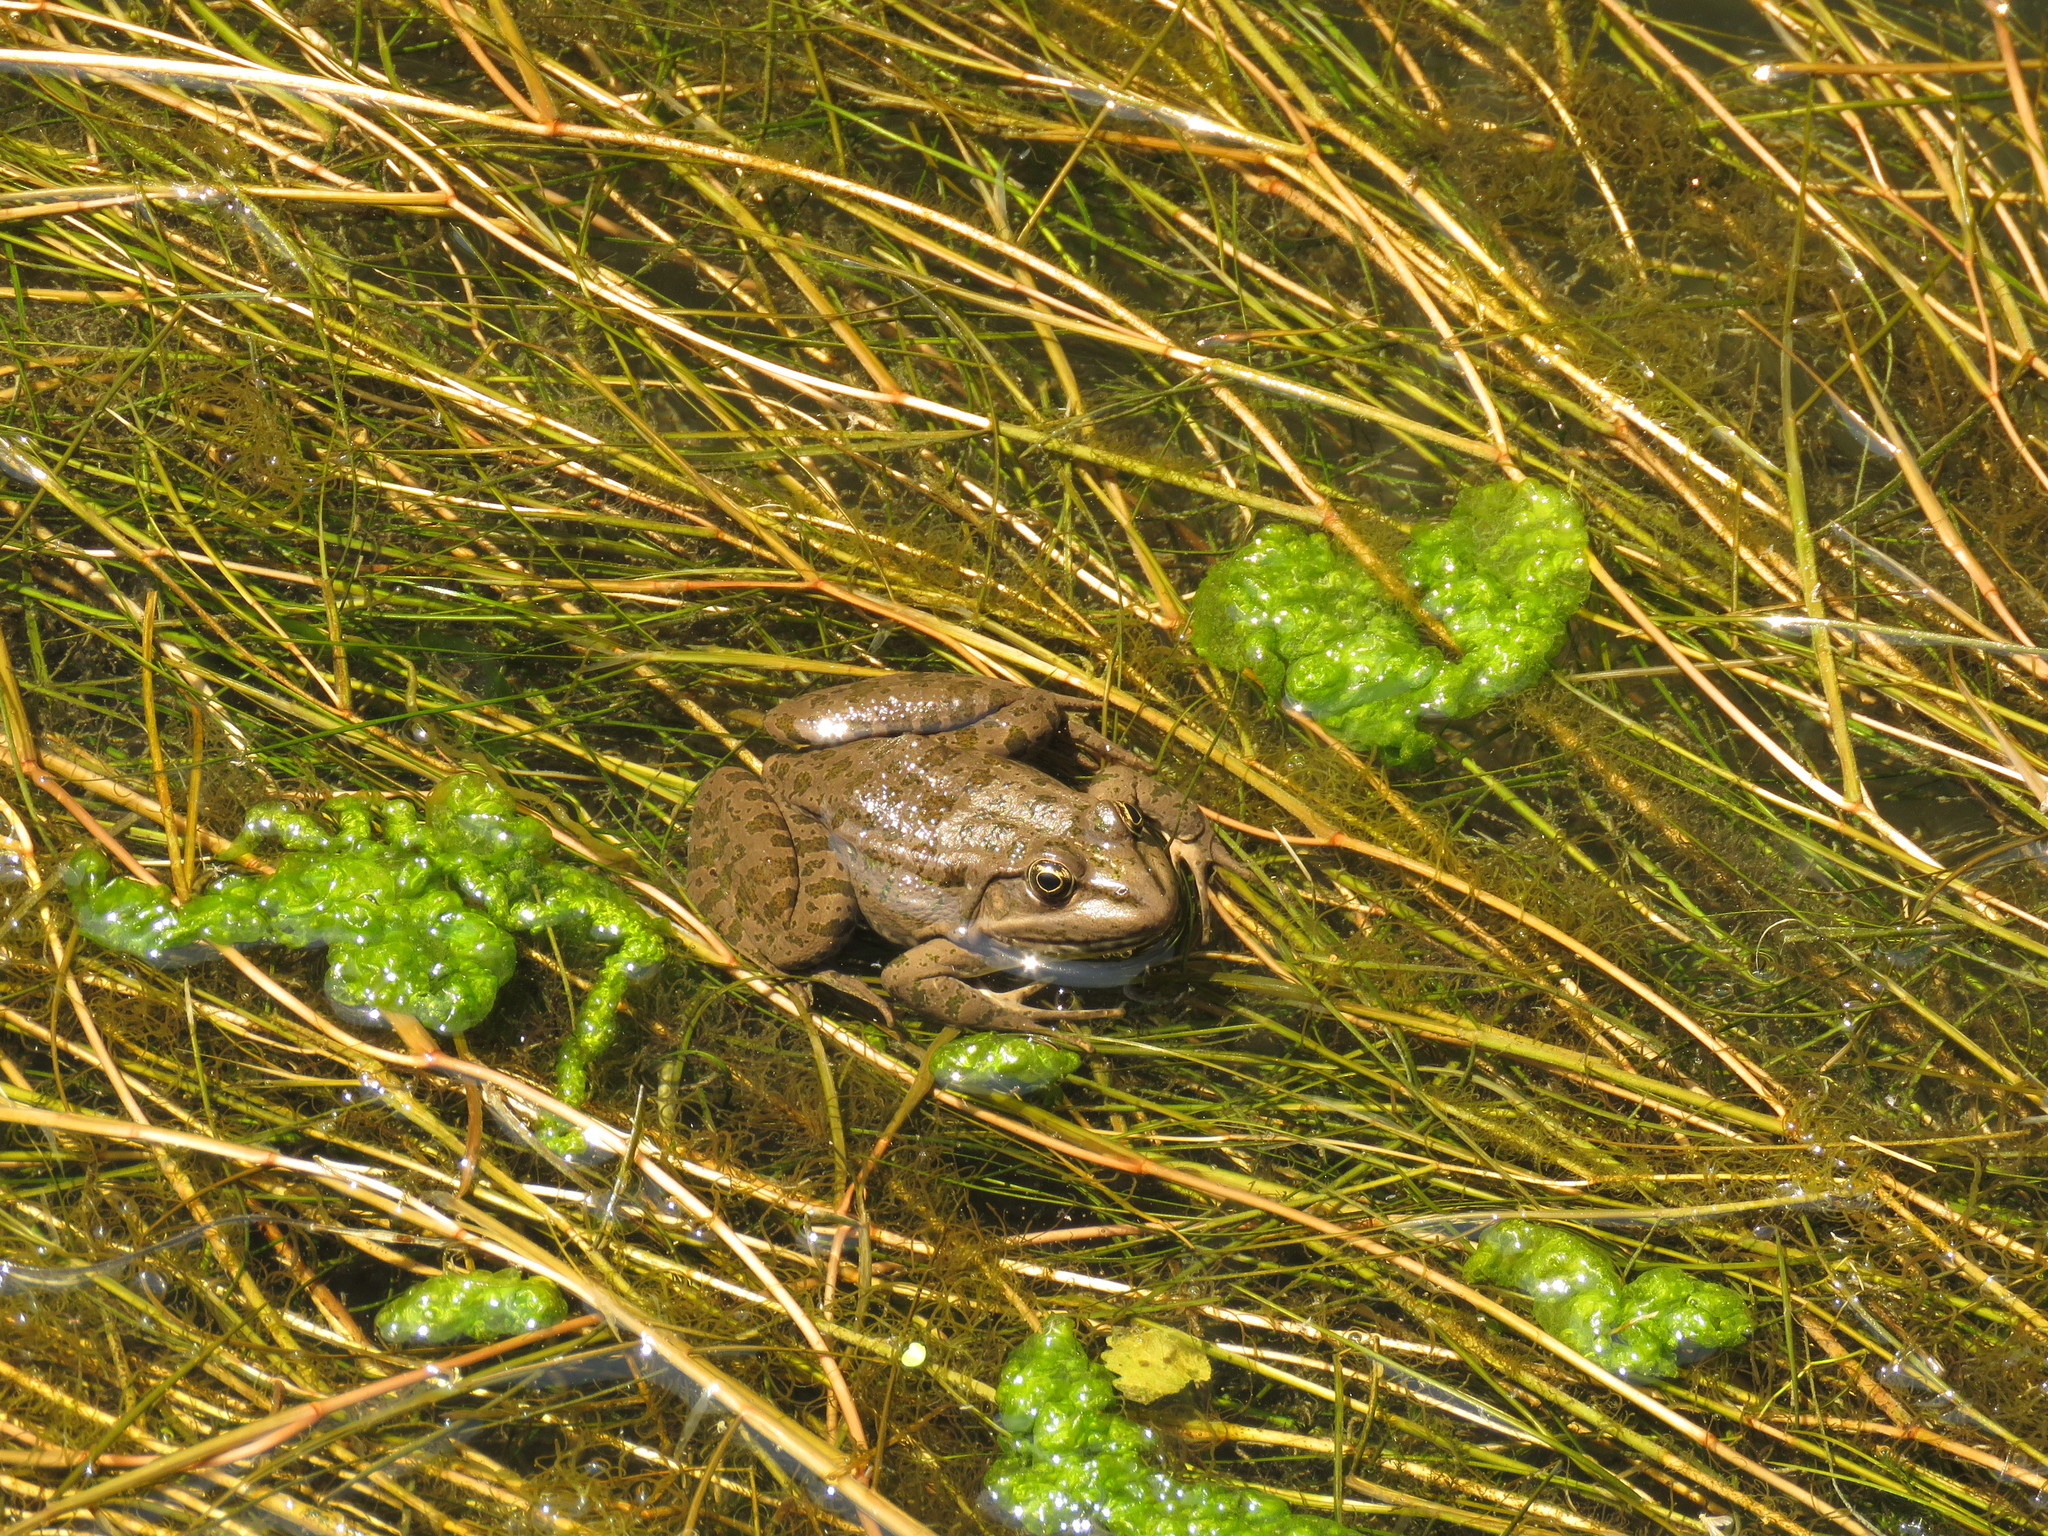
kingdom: Animalia
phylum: Chordata
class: Amphibia
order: Anura
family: Ranidae
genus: Pelophylax
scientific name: Pelophylax ridibundus
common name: Marsh frog
